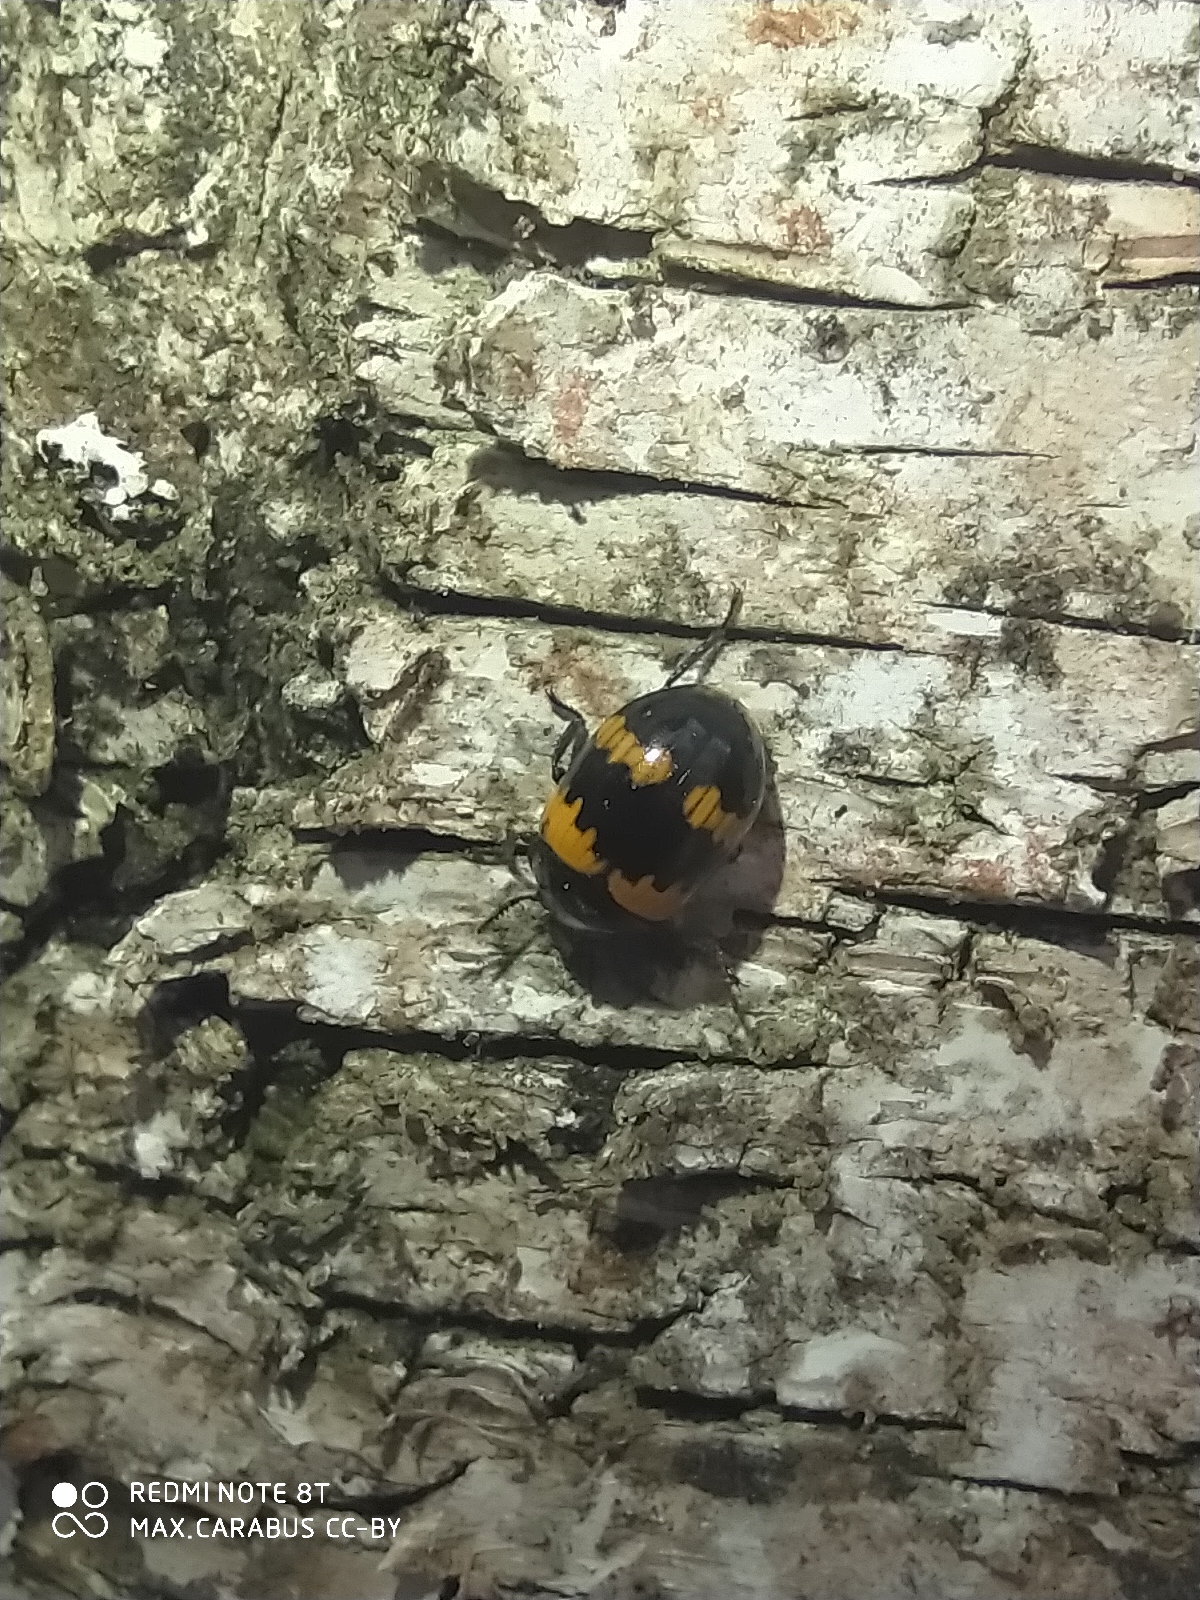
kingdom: Animalia
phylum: Arthropoda
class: Insecta
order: Coleoptera
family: Tenebrionidae
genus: Diaperis
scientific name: Diaperis boleti
